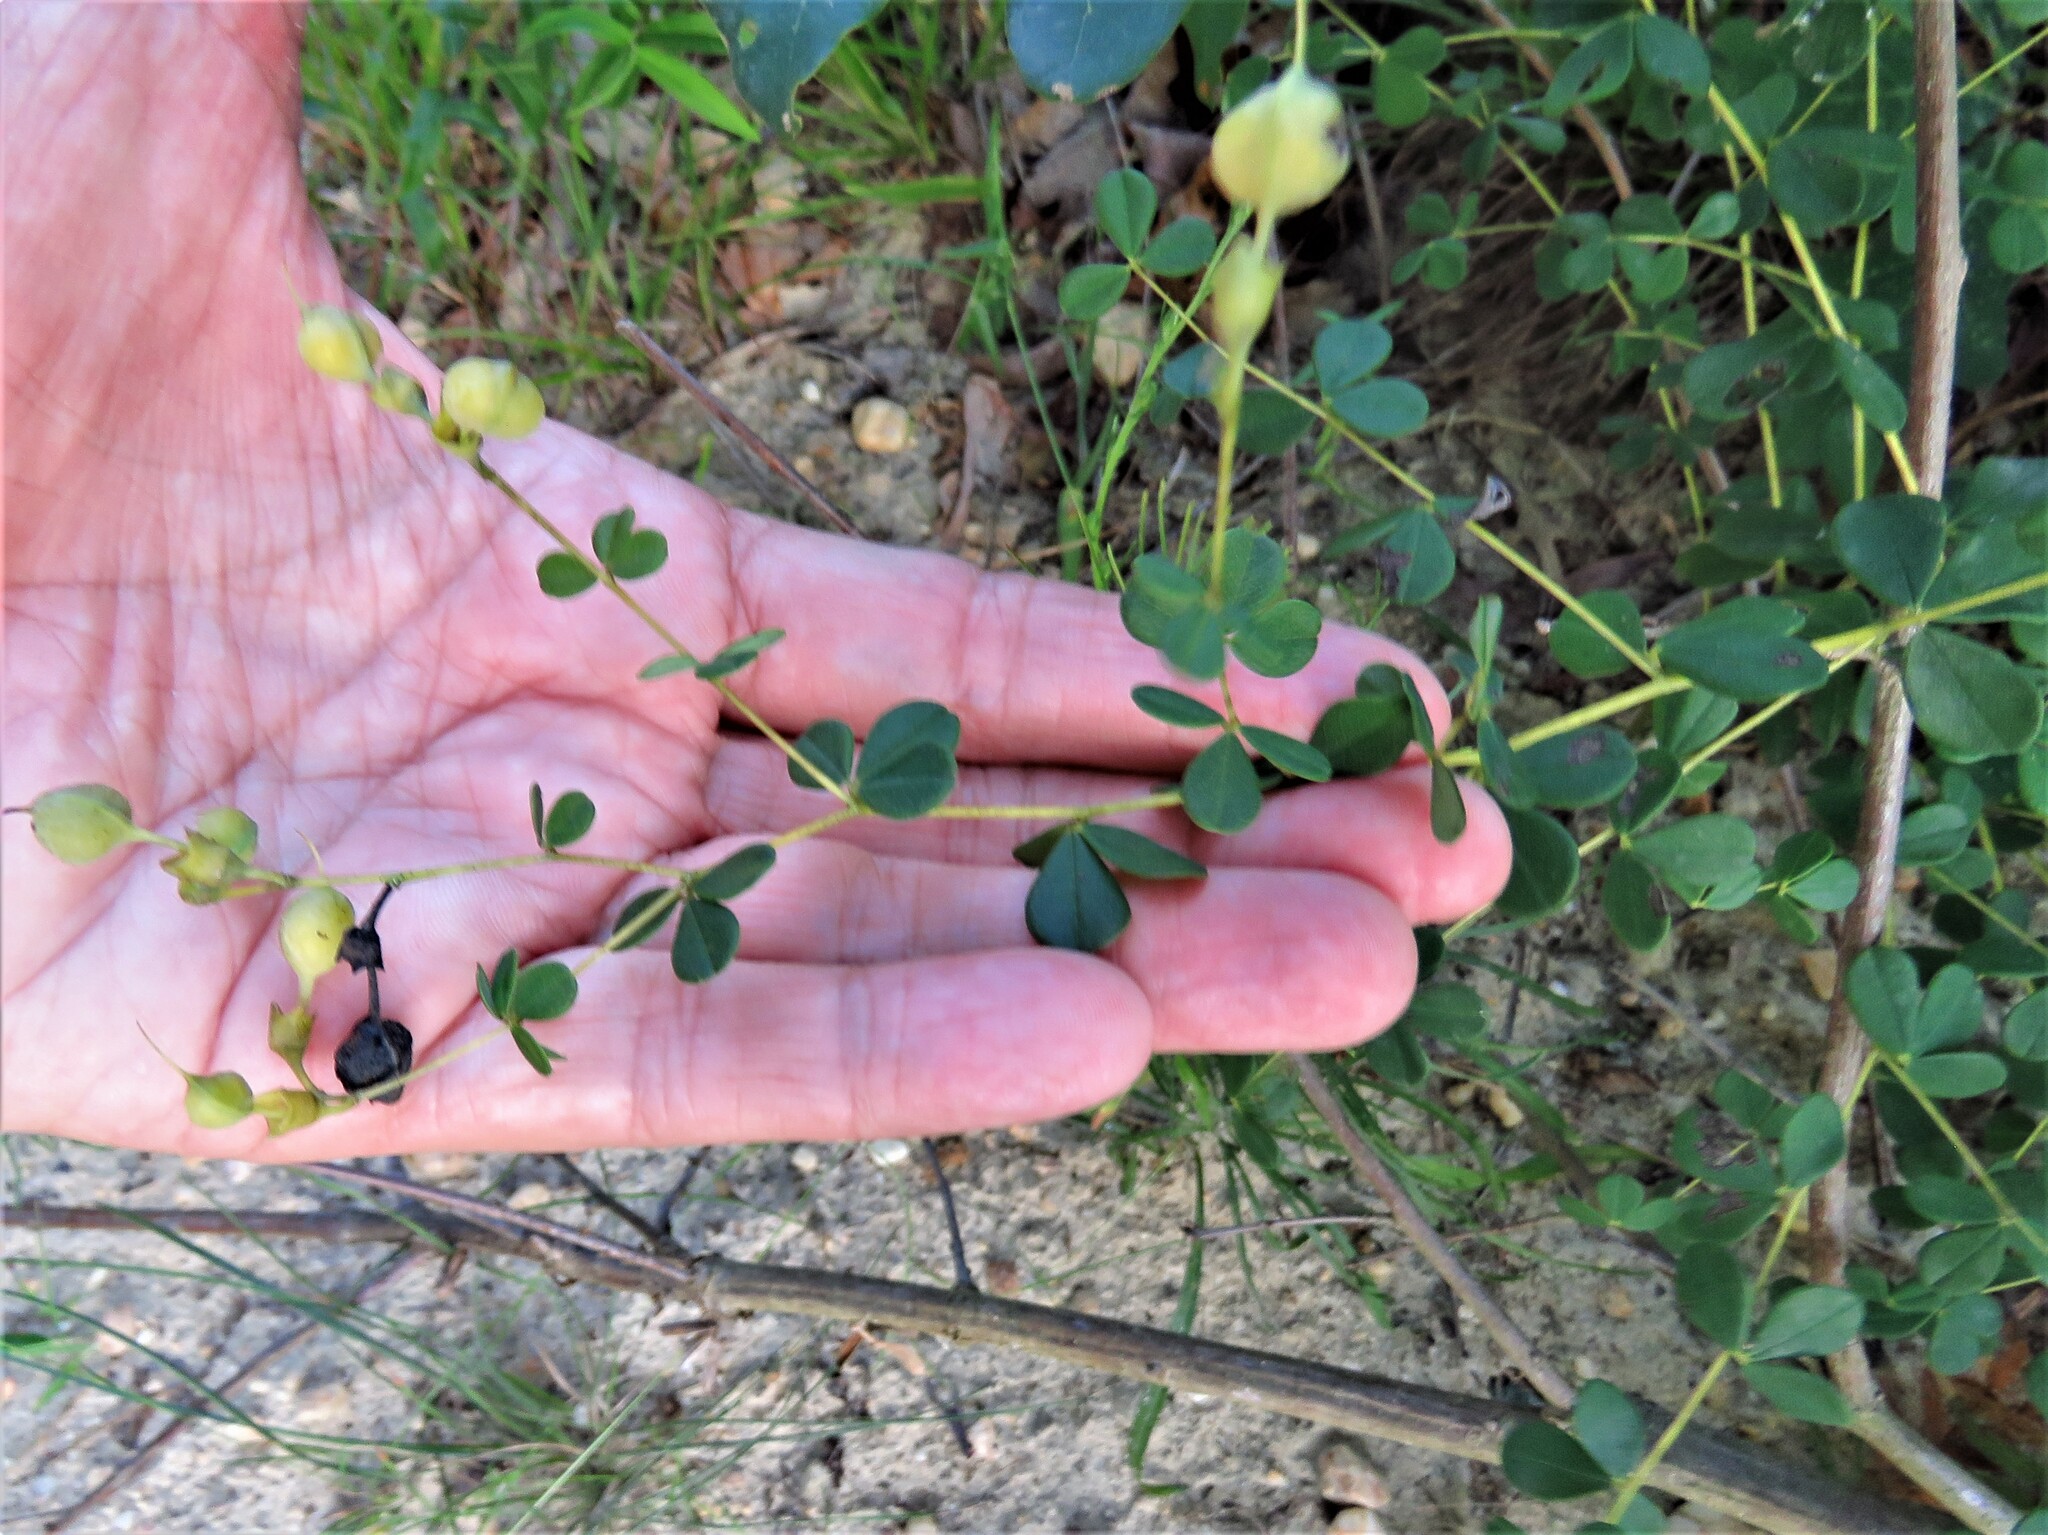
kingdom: Plantae
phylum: Tracheophyta
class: Magnoliopsida
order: Fabales
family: Fabaceae
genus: Baptisia
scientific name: Baptisia tinctoria
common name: Wild indigo
